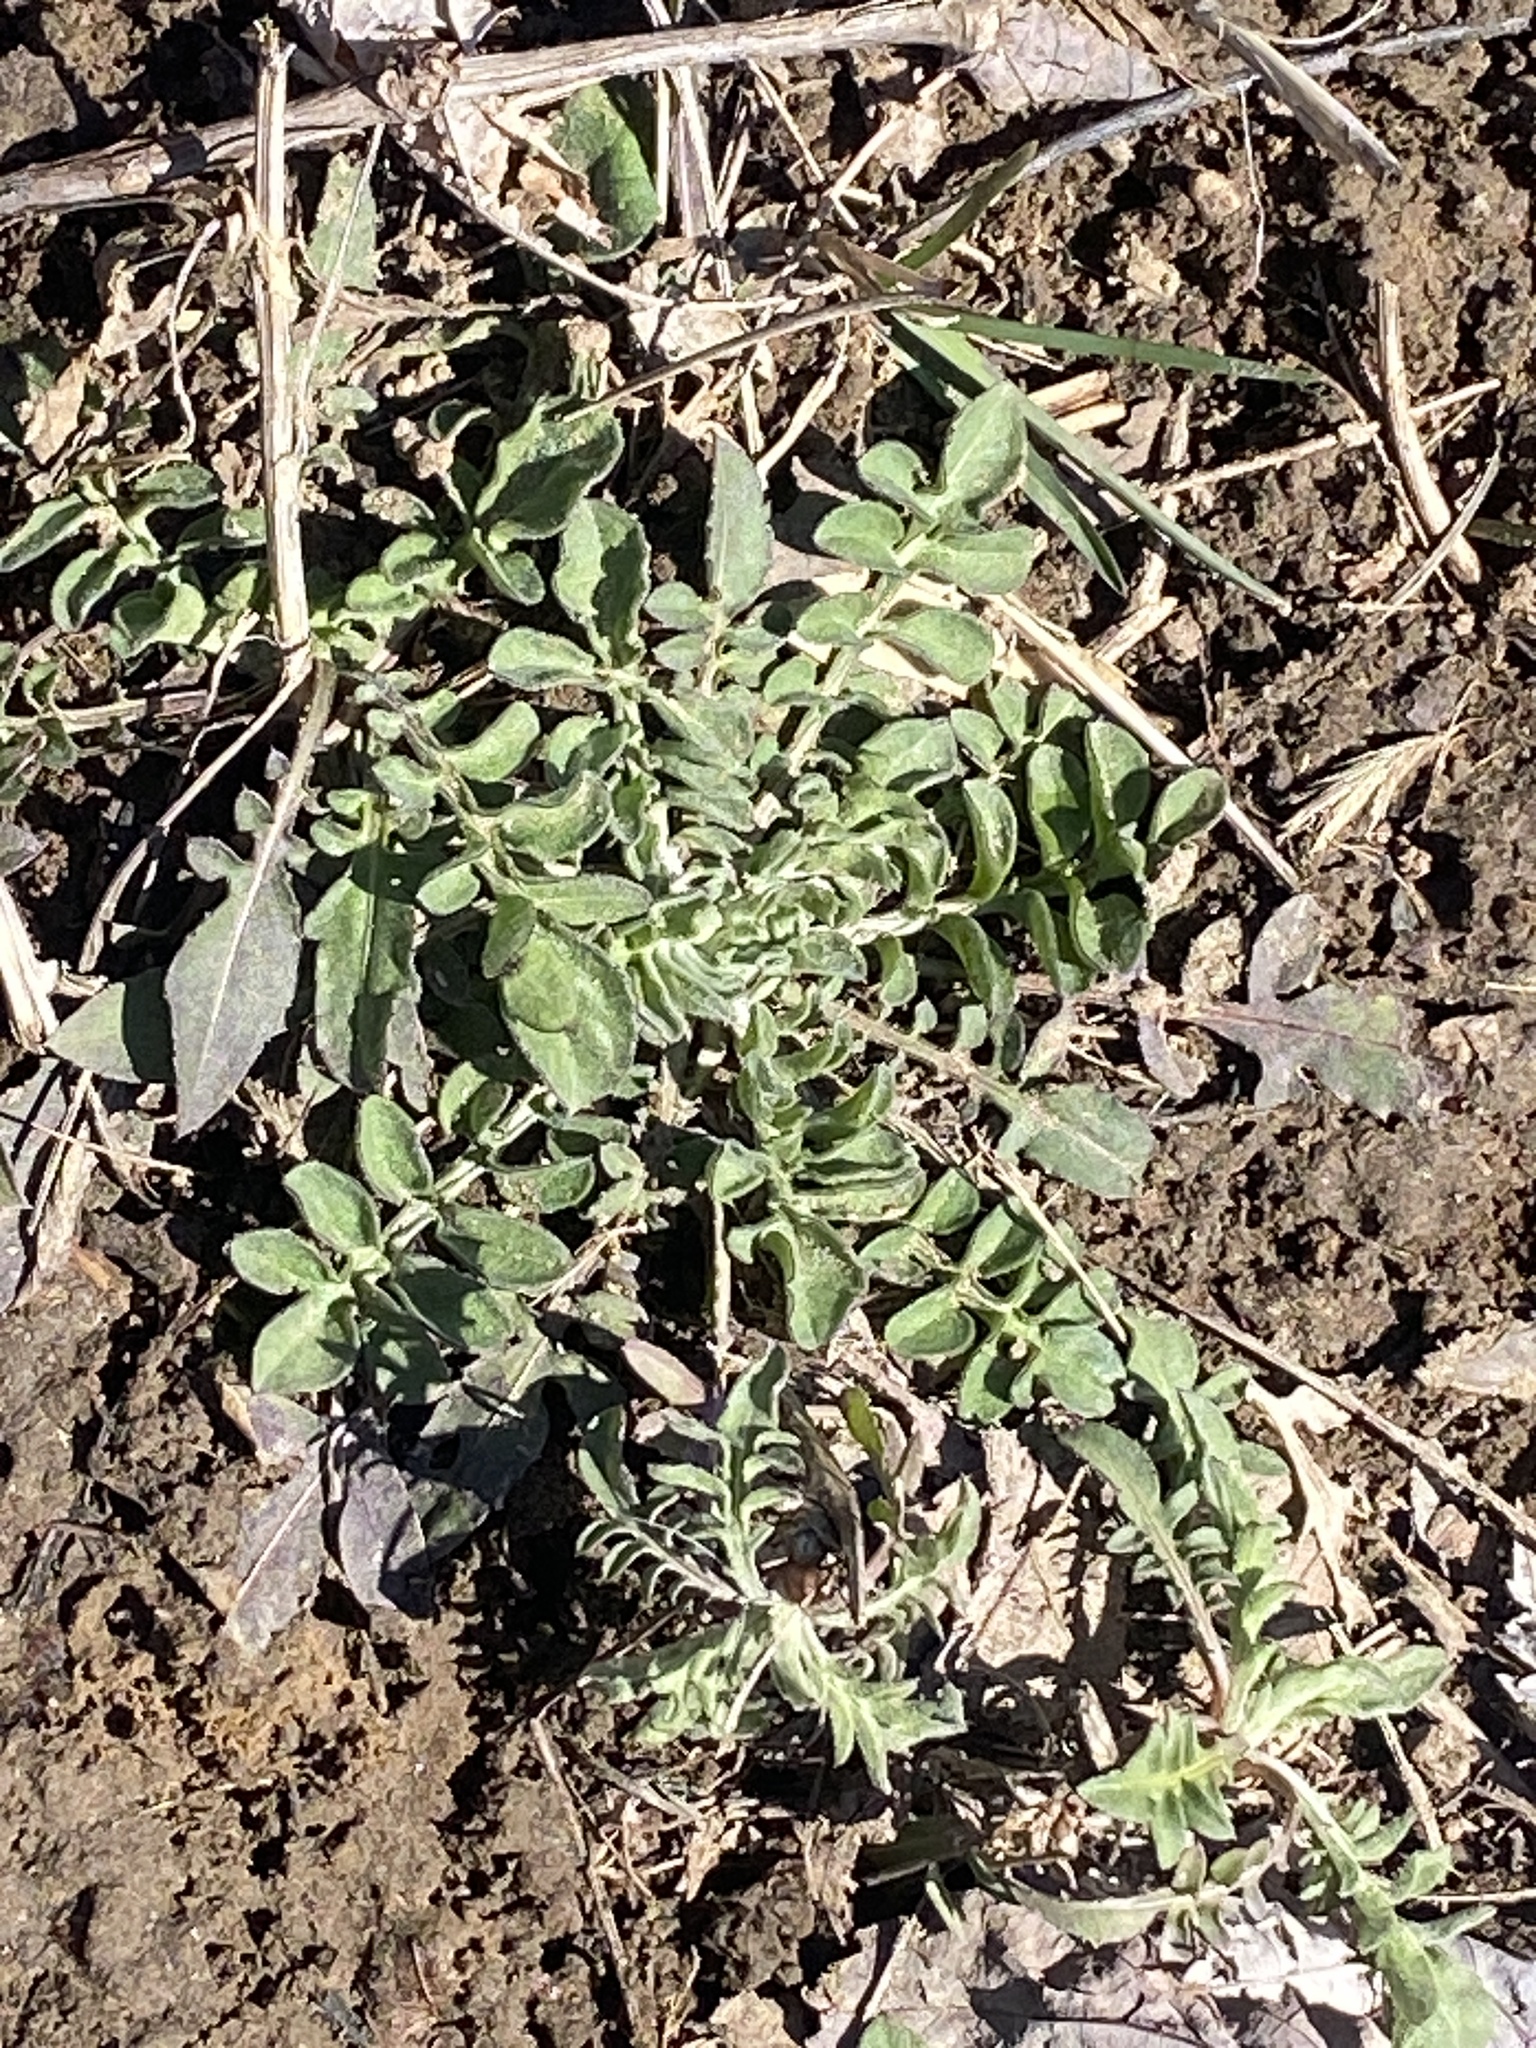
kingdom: Plantae
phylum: Tracheophyta
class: Magnoliopsida
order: Asterales
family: Asteraceae
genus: Centaurea
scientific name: Centaurea stoebe
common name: Spotted knapweed
